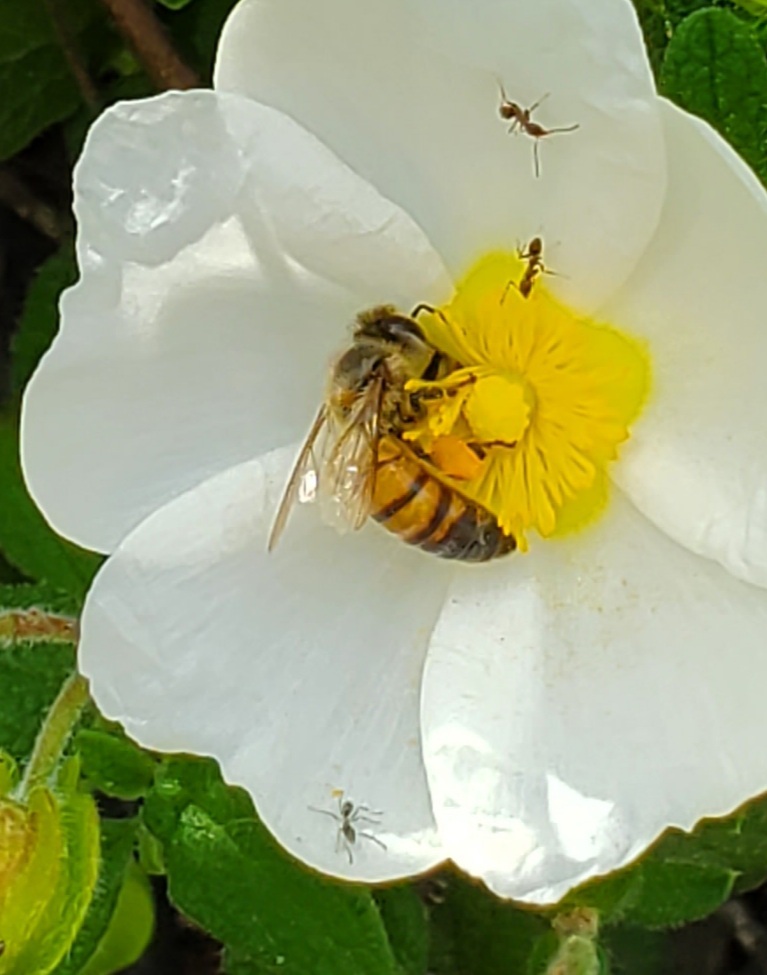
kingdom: Animalia
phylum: Arthropoda
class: Insecta
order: Hymenoptera
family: Apidae
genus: Apis
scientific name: Apis mellifera
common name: Honey bee
